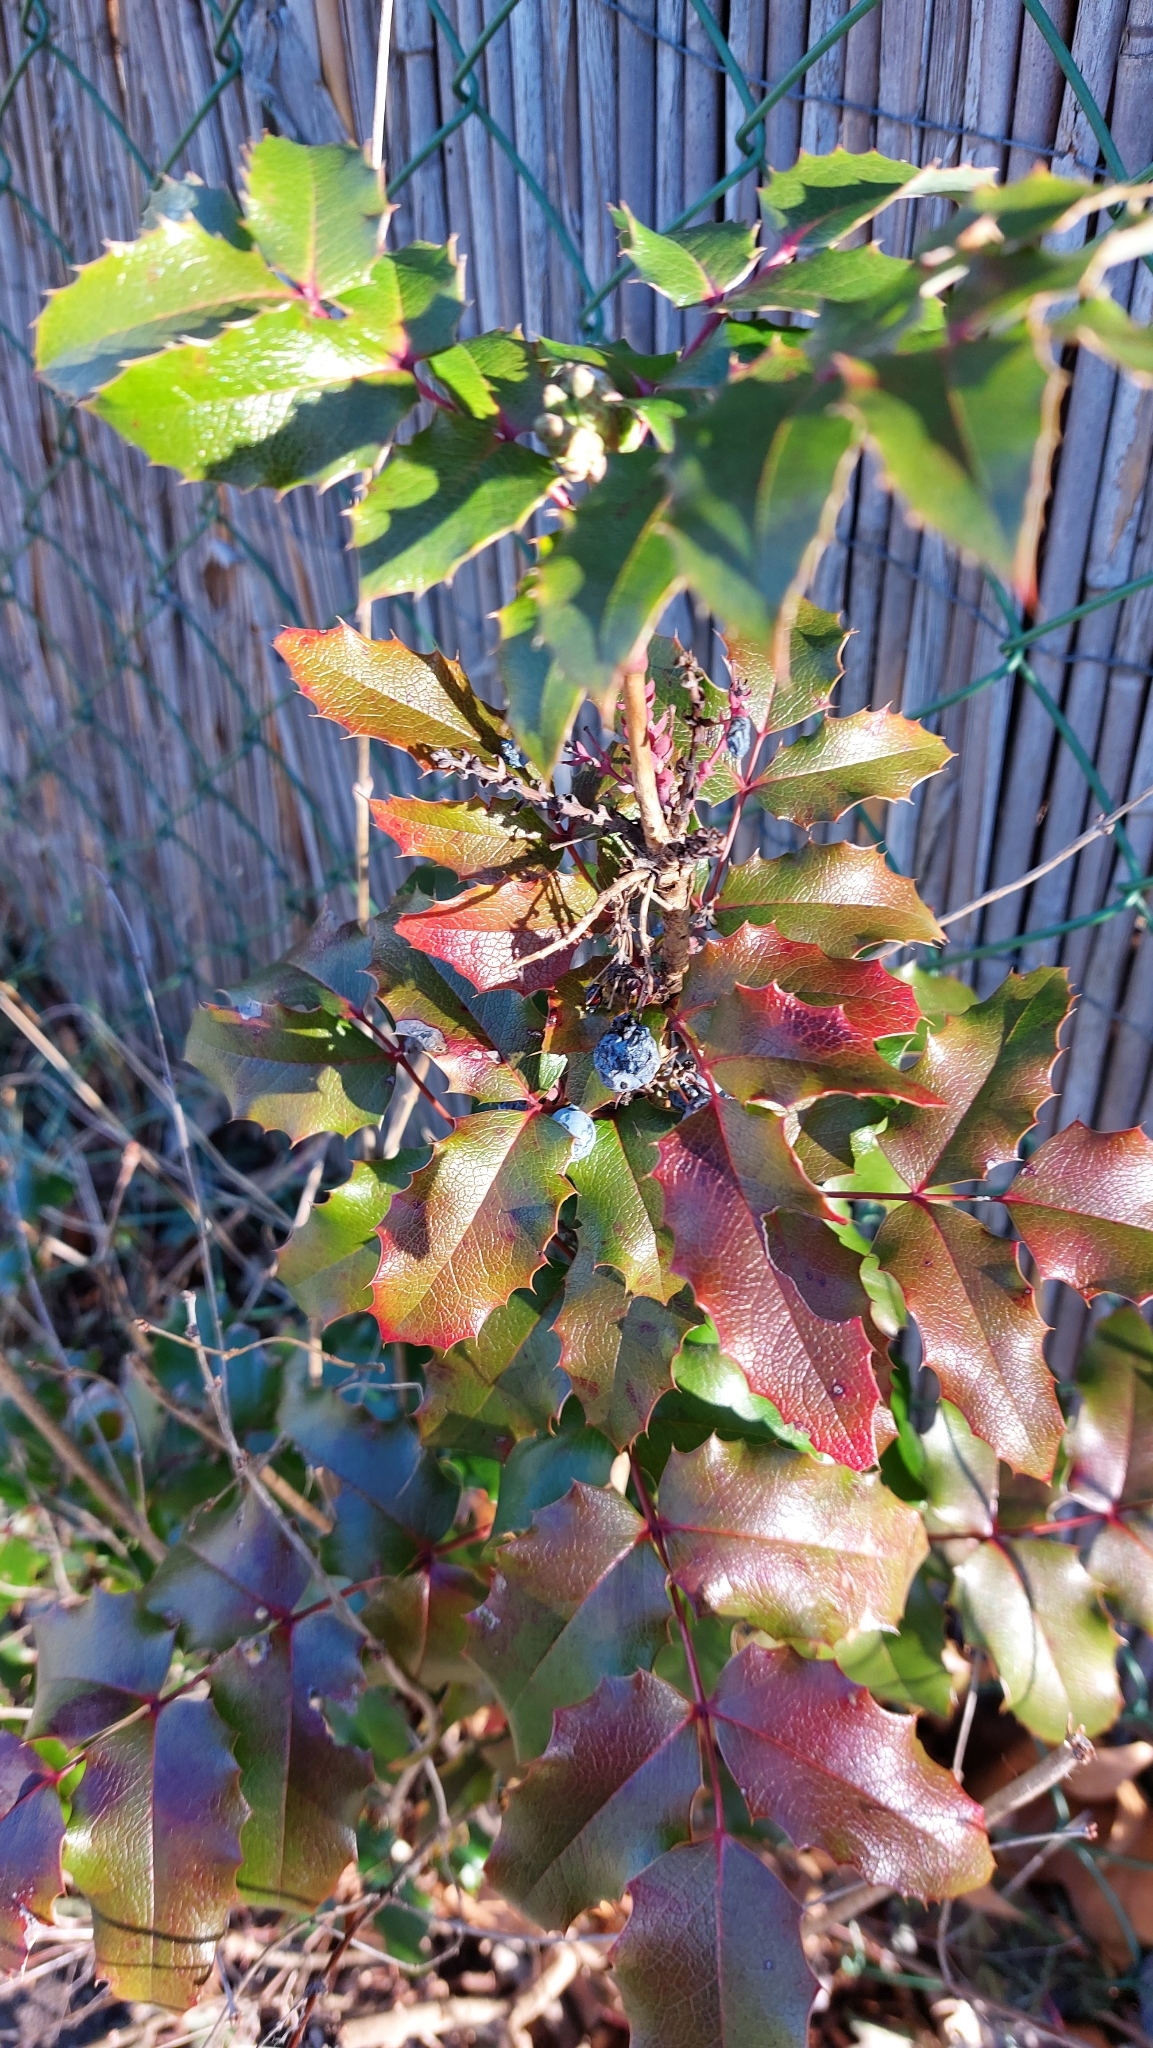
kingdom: Plantae
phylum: Tracheophyta
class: Magnoliopsida
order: Ranunculales
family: Berberidaceae
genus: Mahonia
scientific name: Mahonia aquifolium
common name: Oregon-grape
